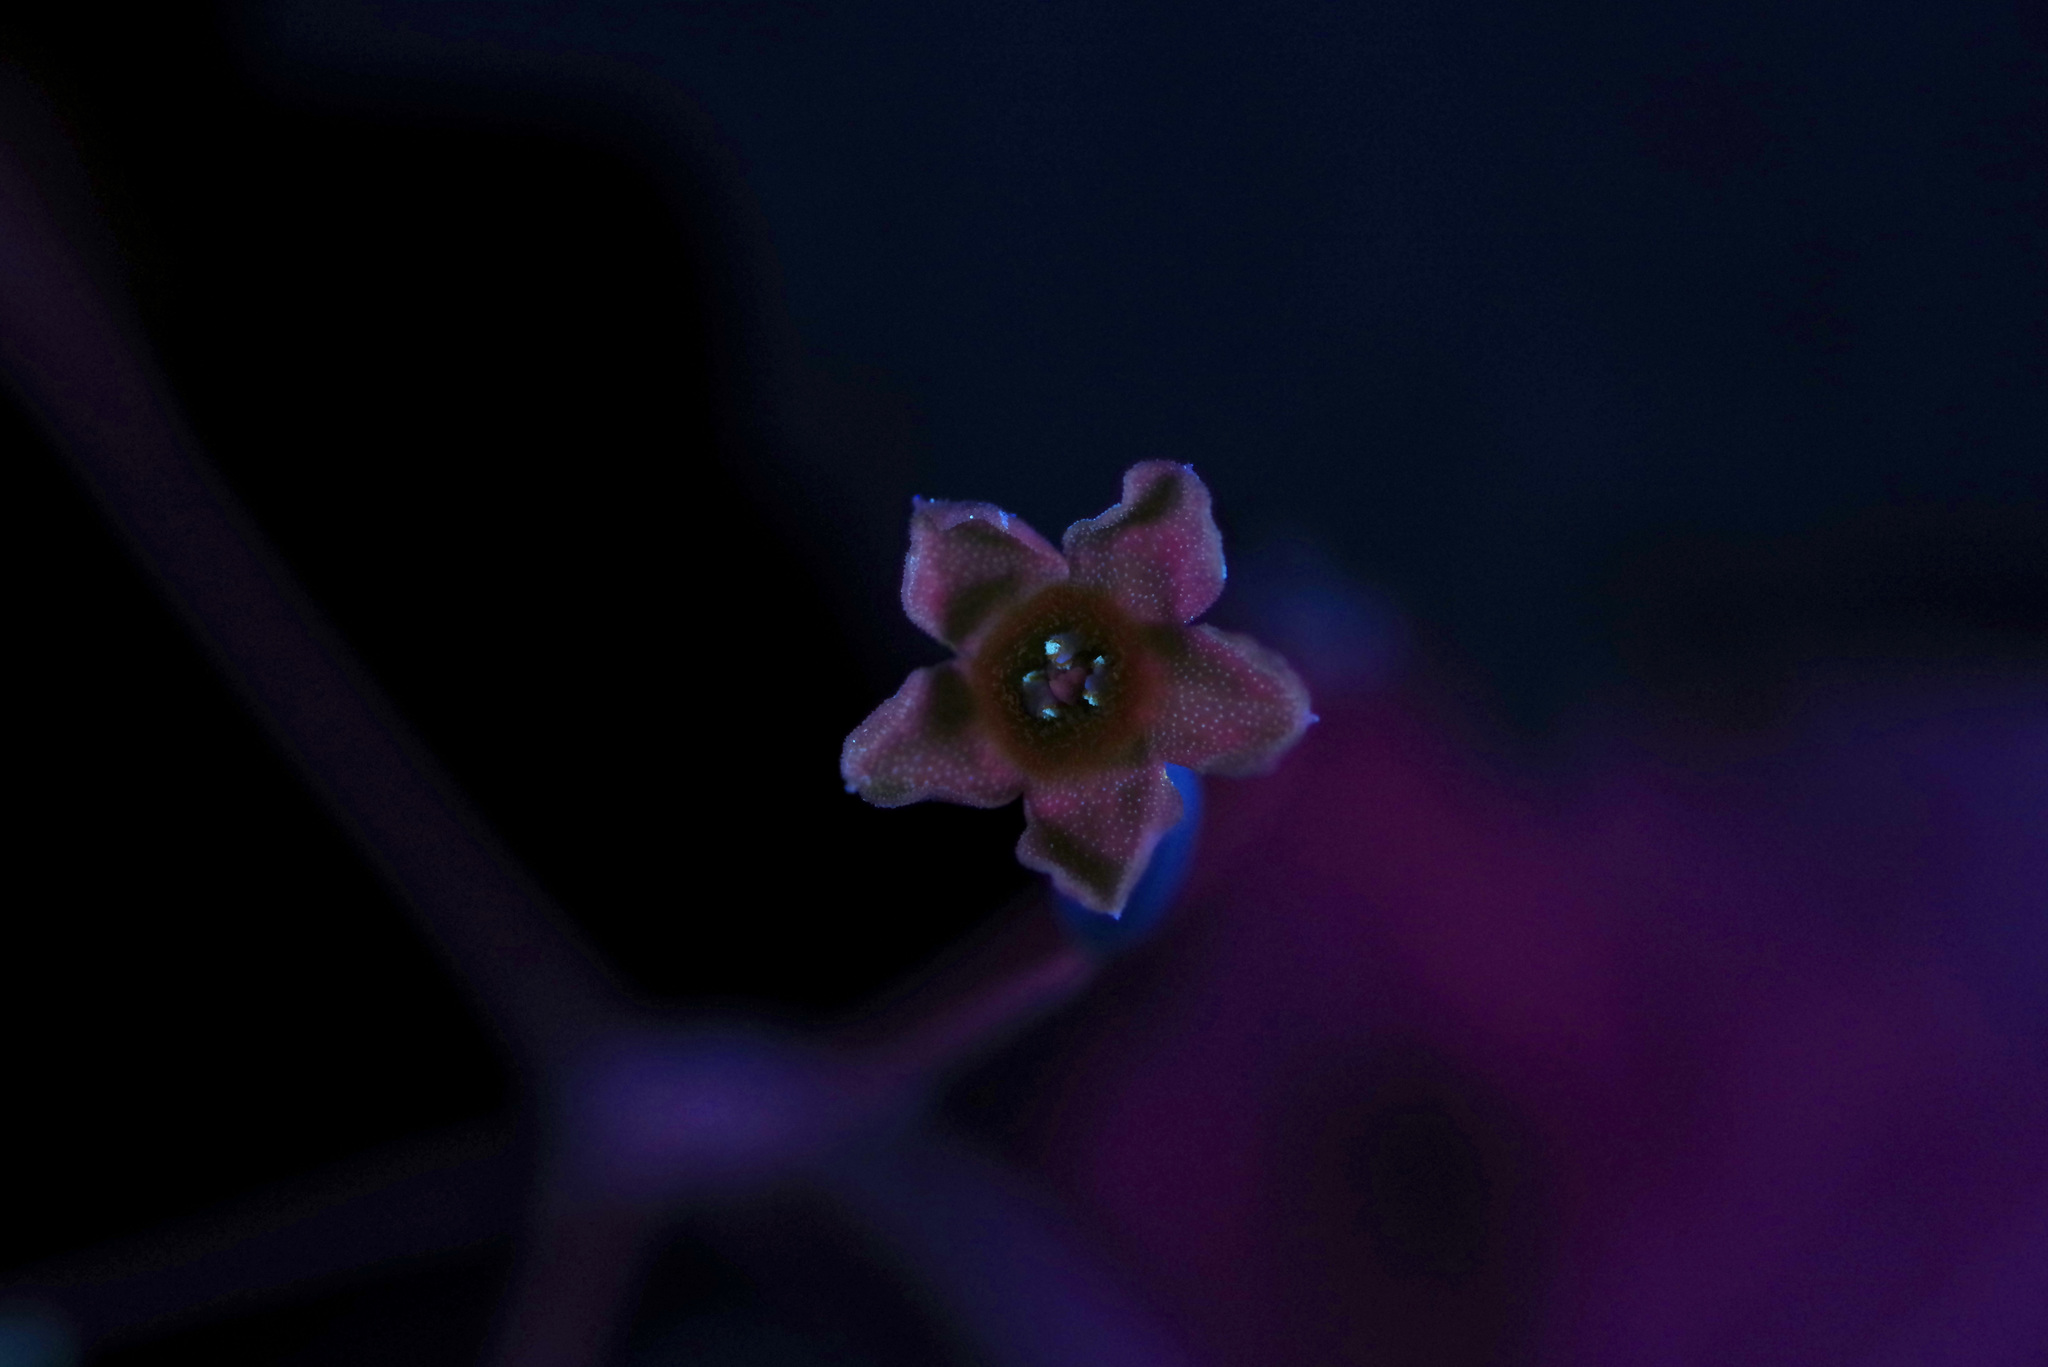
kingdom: Plantae
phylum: Tracheophyta
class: Magnoliopsida
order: Cucurbitales
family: Cucurbitaceae
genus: Melothria
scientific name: Melothria pendula
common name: Creeping-cucumber
